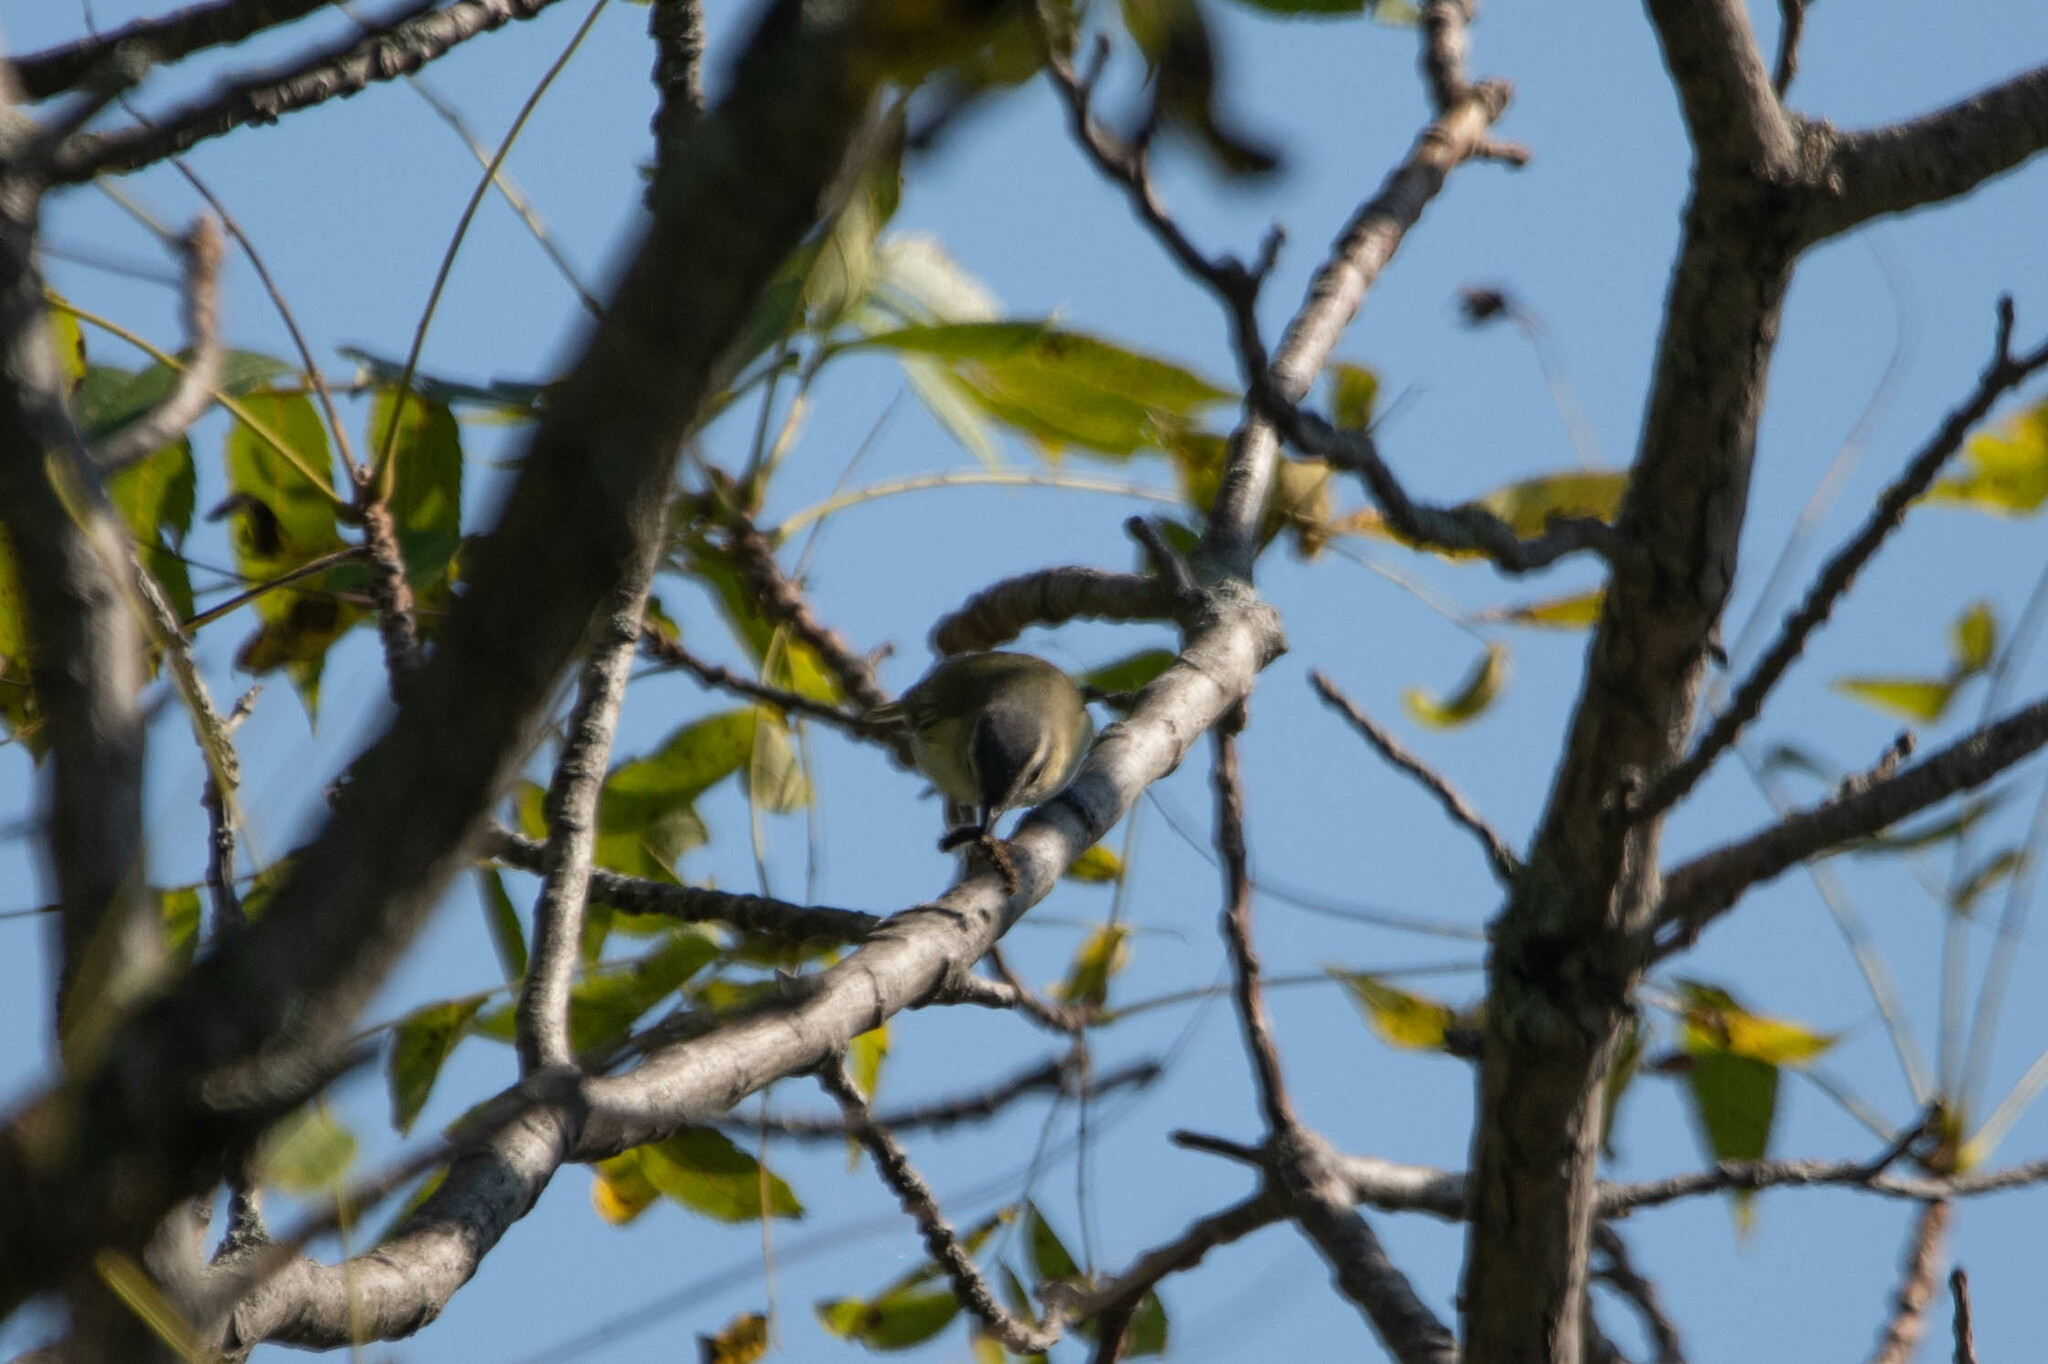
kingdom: Animalia
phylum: Chordata
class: Aves
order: Passeriformes
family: Vireonidae
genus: Vireo
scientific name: Vireo olivaceus
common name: Red-eyed vireo
